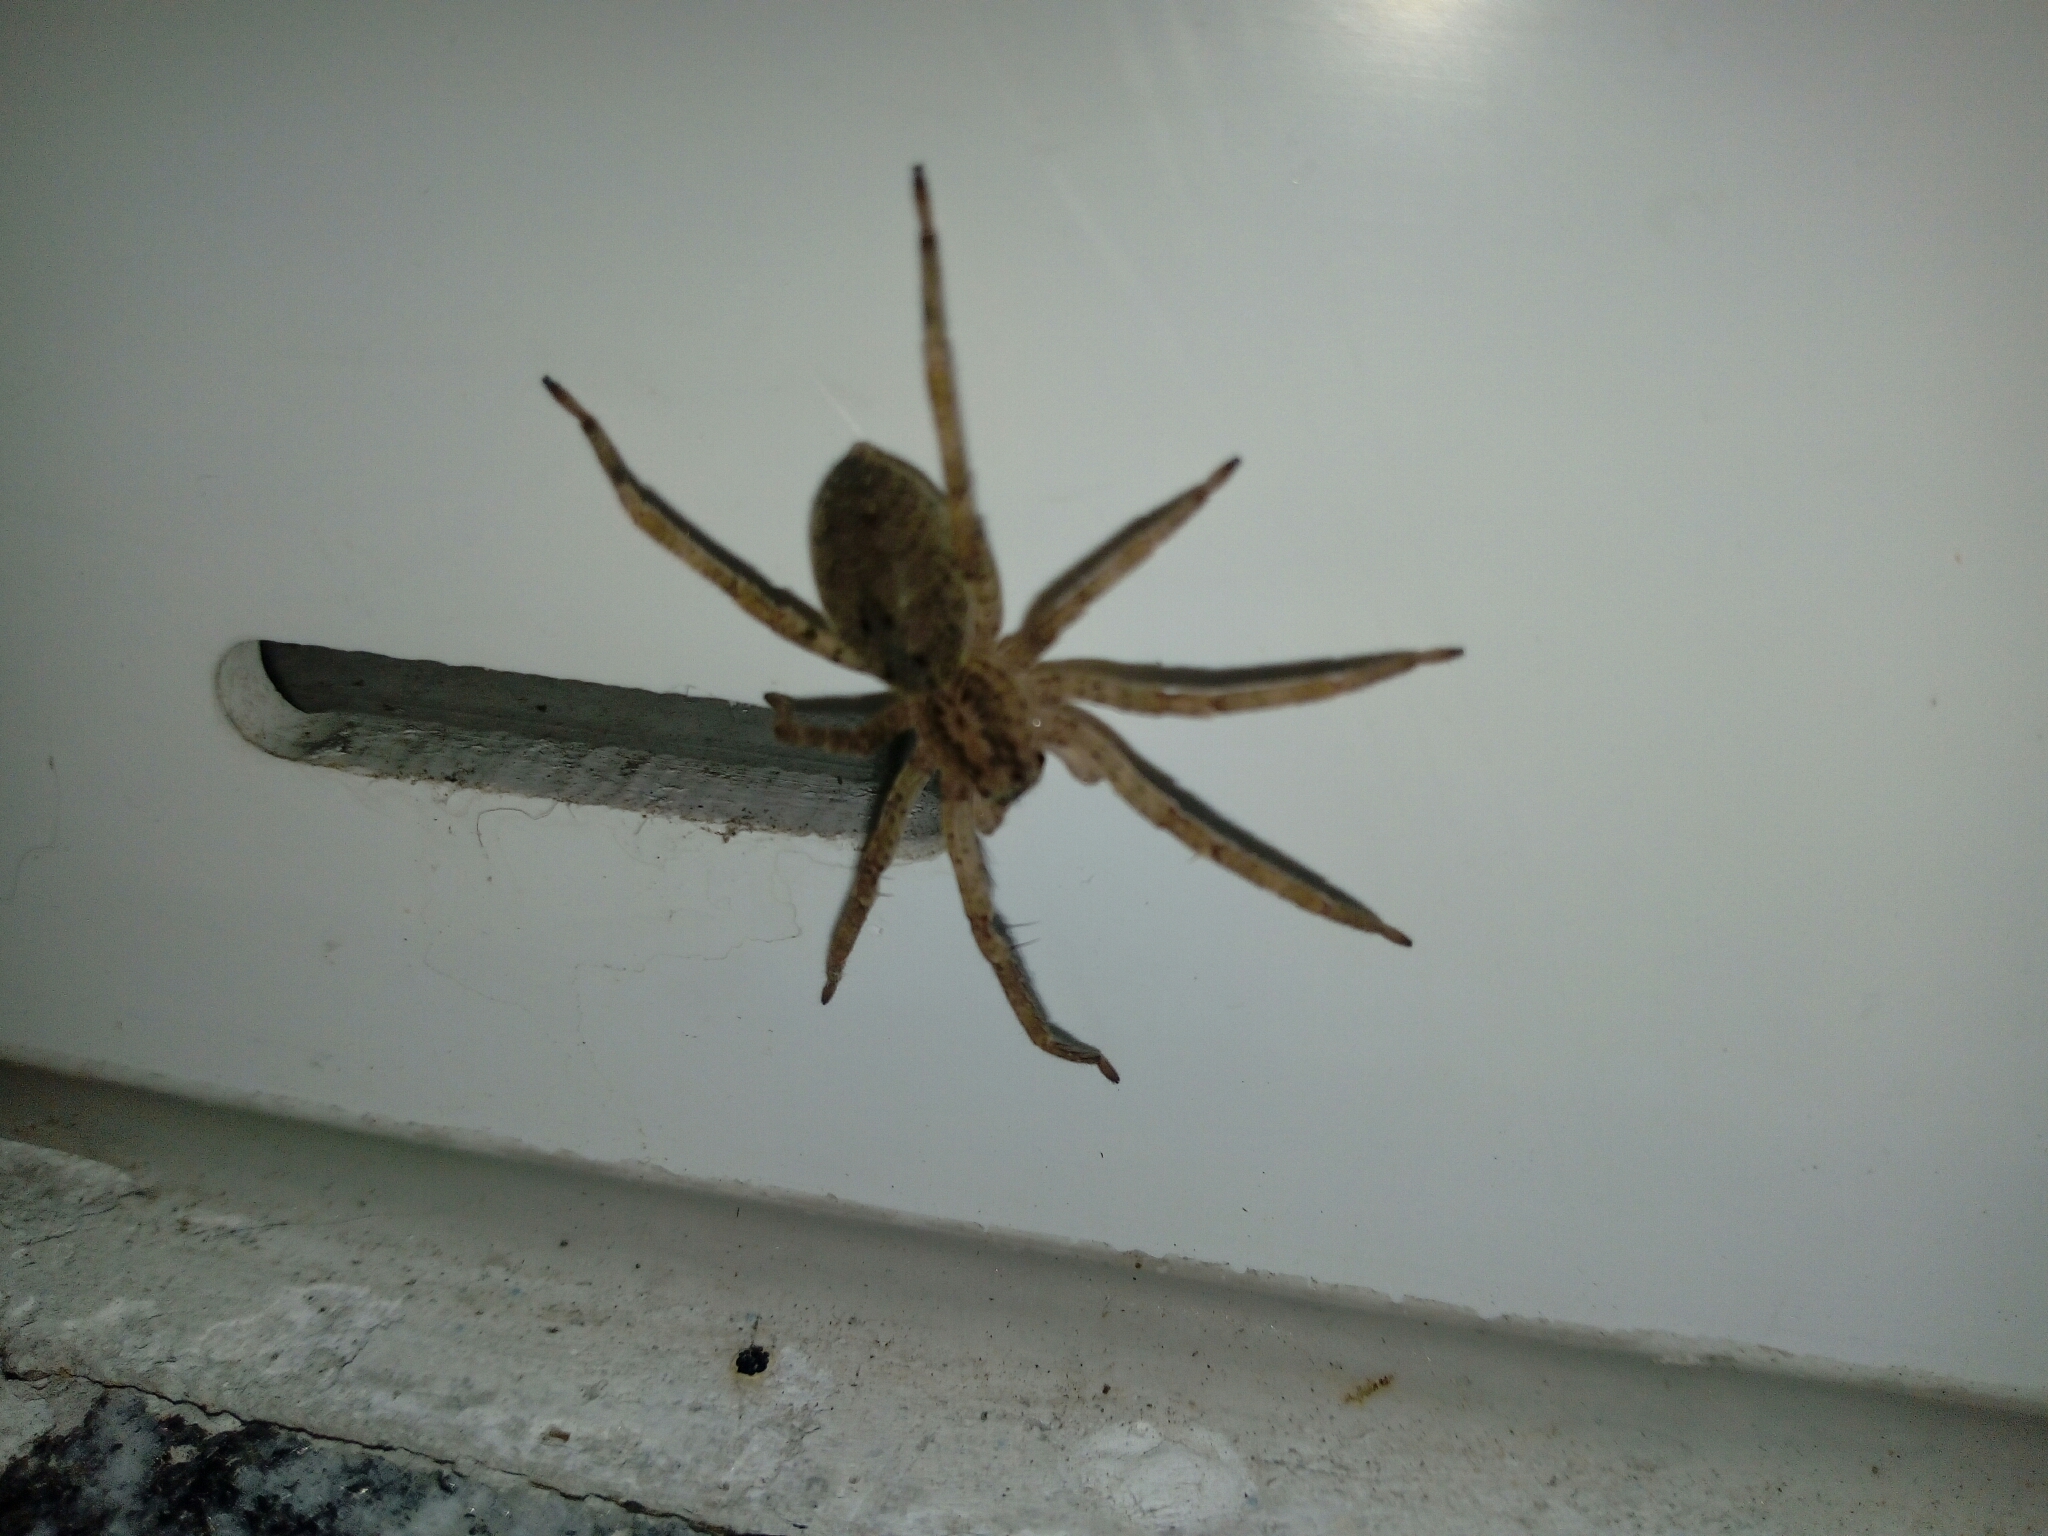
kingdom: Animalia
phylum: Arthropoda
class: Arachnida
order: Araneae
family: Zoropsidae
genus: Zoropsis
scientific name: Zoropsis spinimana
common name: Zoropsid spider
